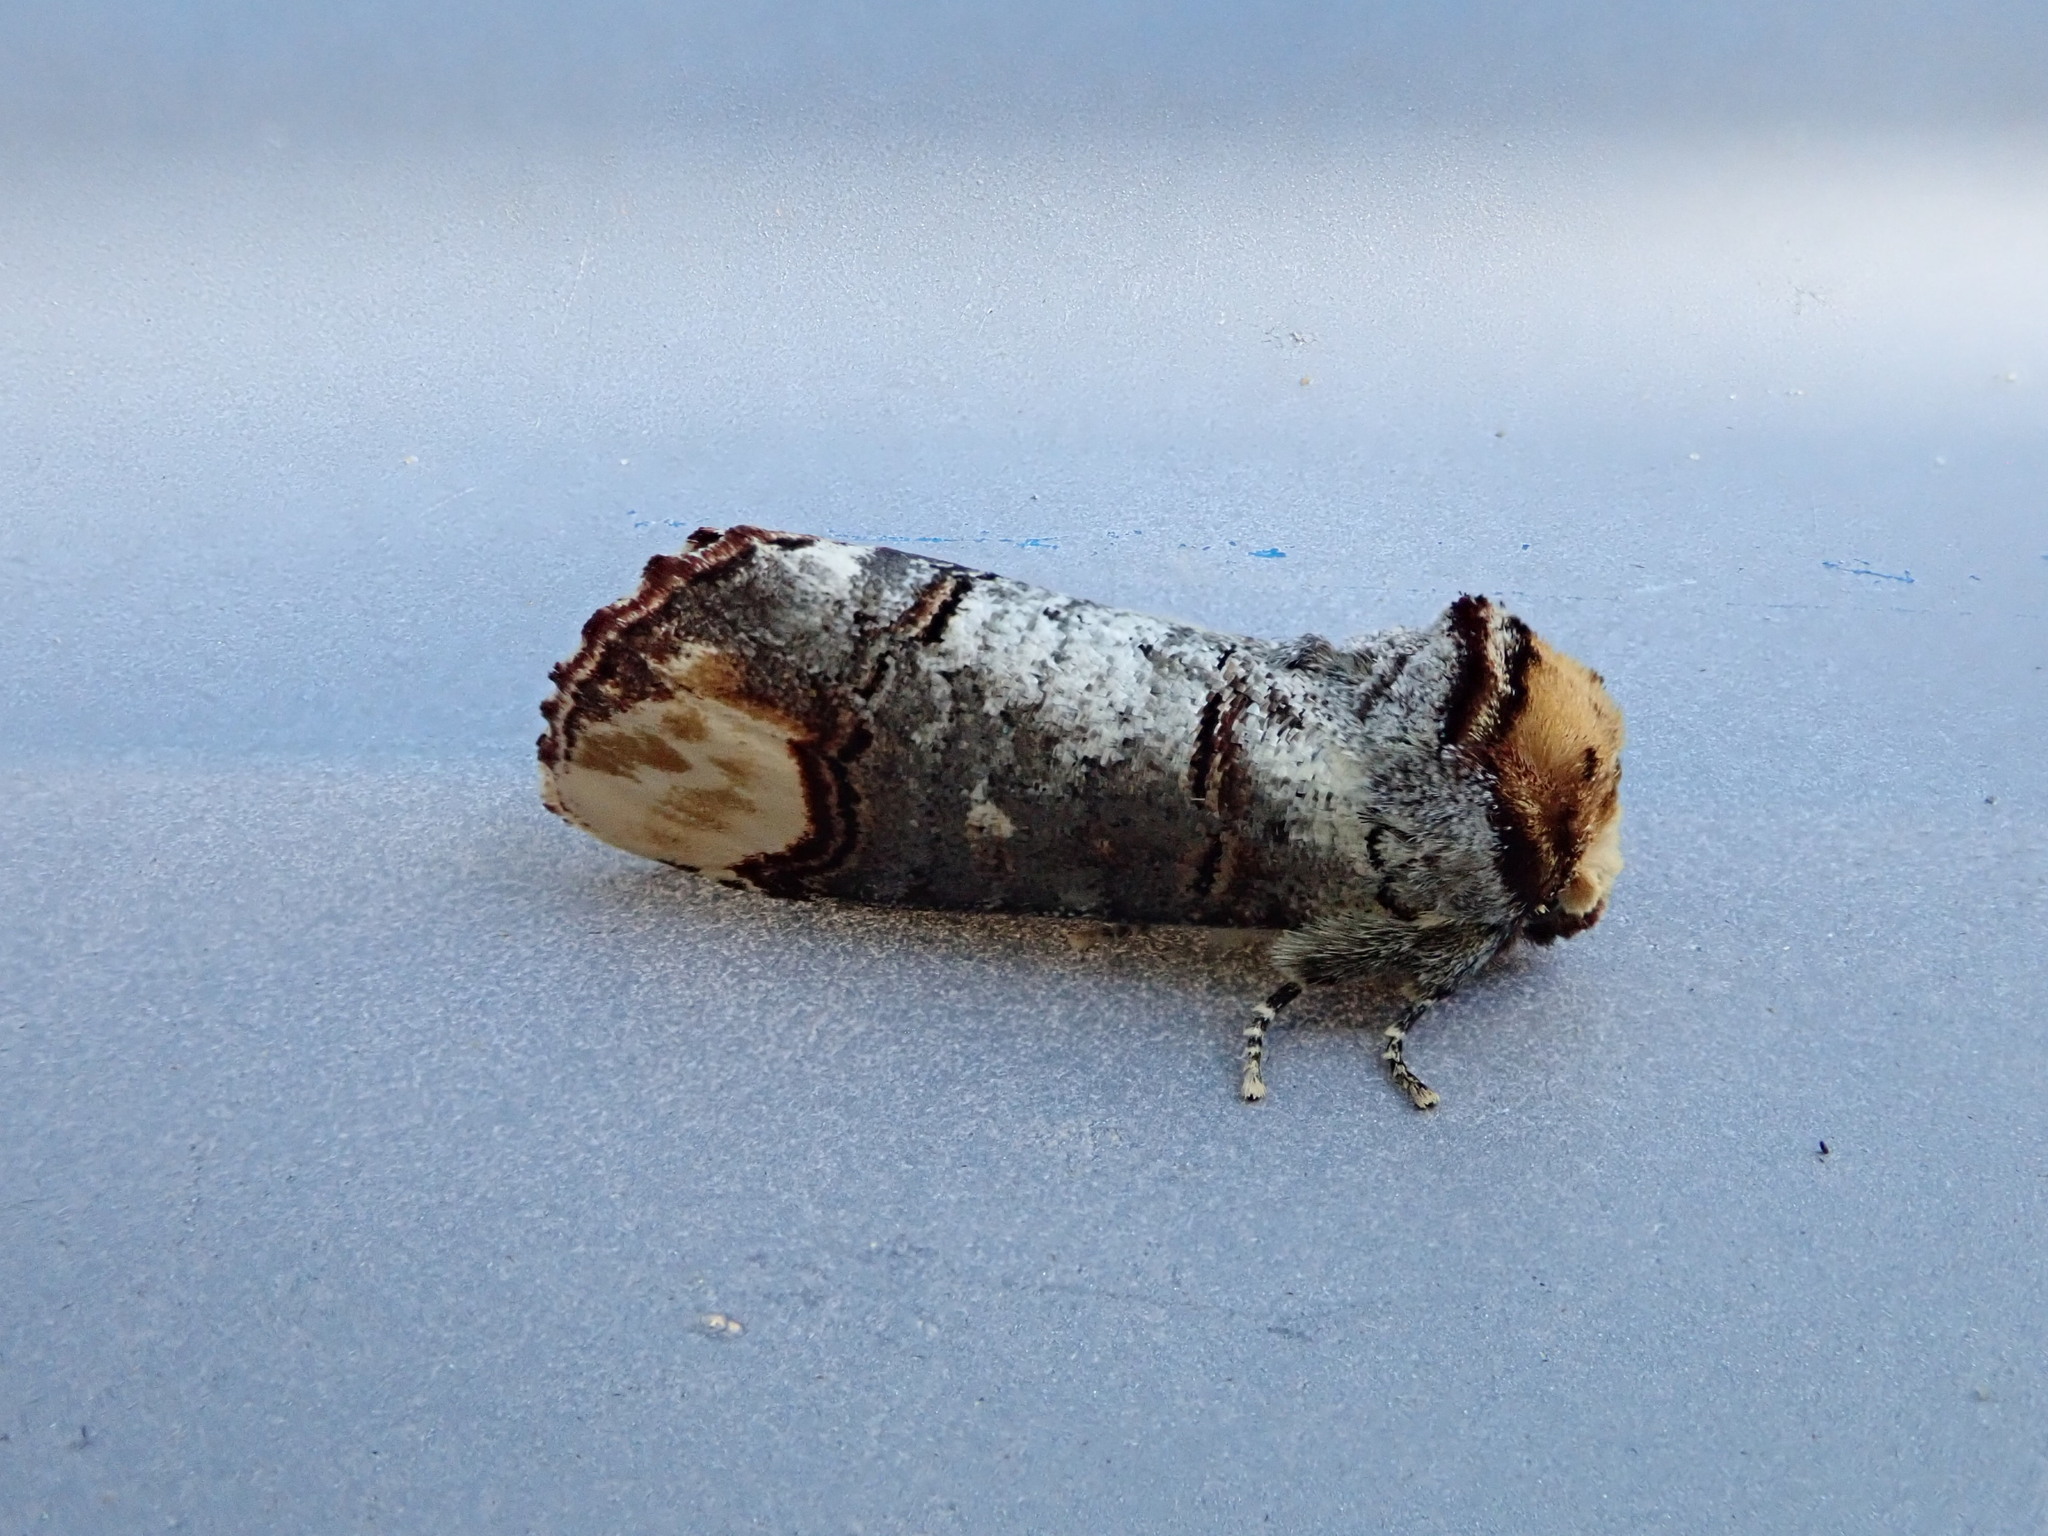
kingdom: Animalia
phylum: Arthropoda
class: Insecta
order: Lepidoptera
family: Notodontidae
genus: Phalera
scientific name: Phalera bucephala
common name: Buff-tip
